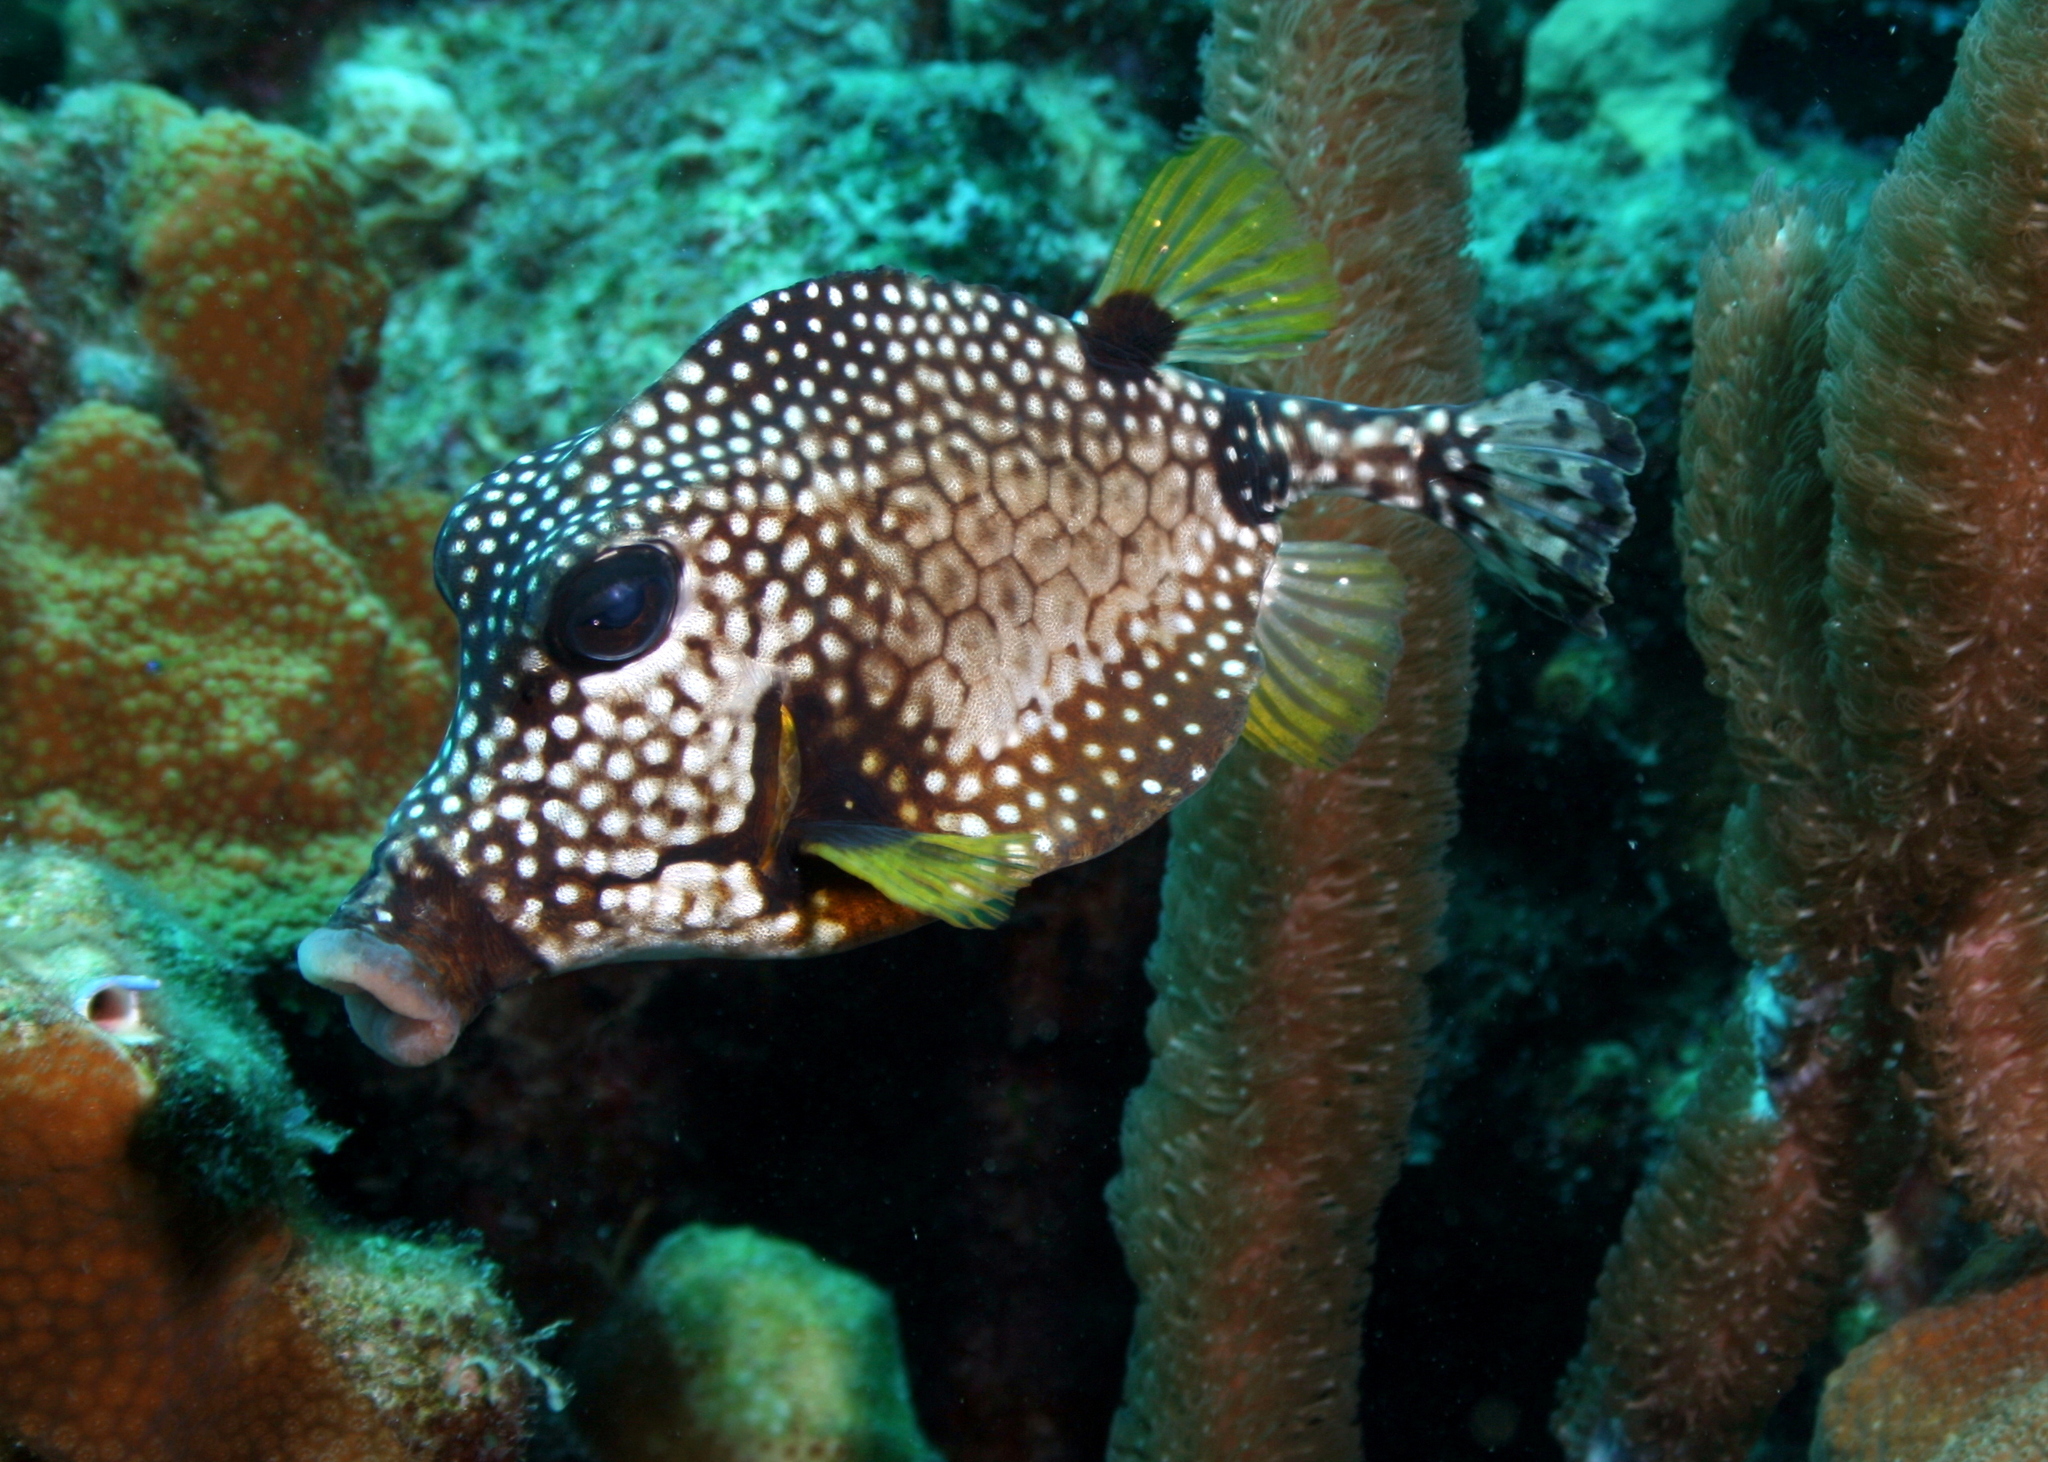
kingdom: Animalia
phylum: Chordata
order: Tetraodontiformes
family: Ostraciidae
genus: Lactophrys
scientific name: Lactophrys triqueter
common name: Smooth trunkfish
